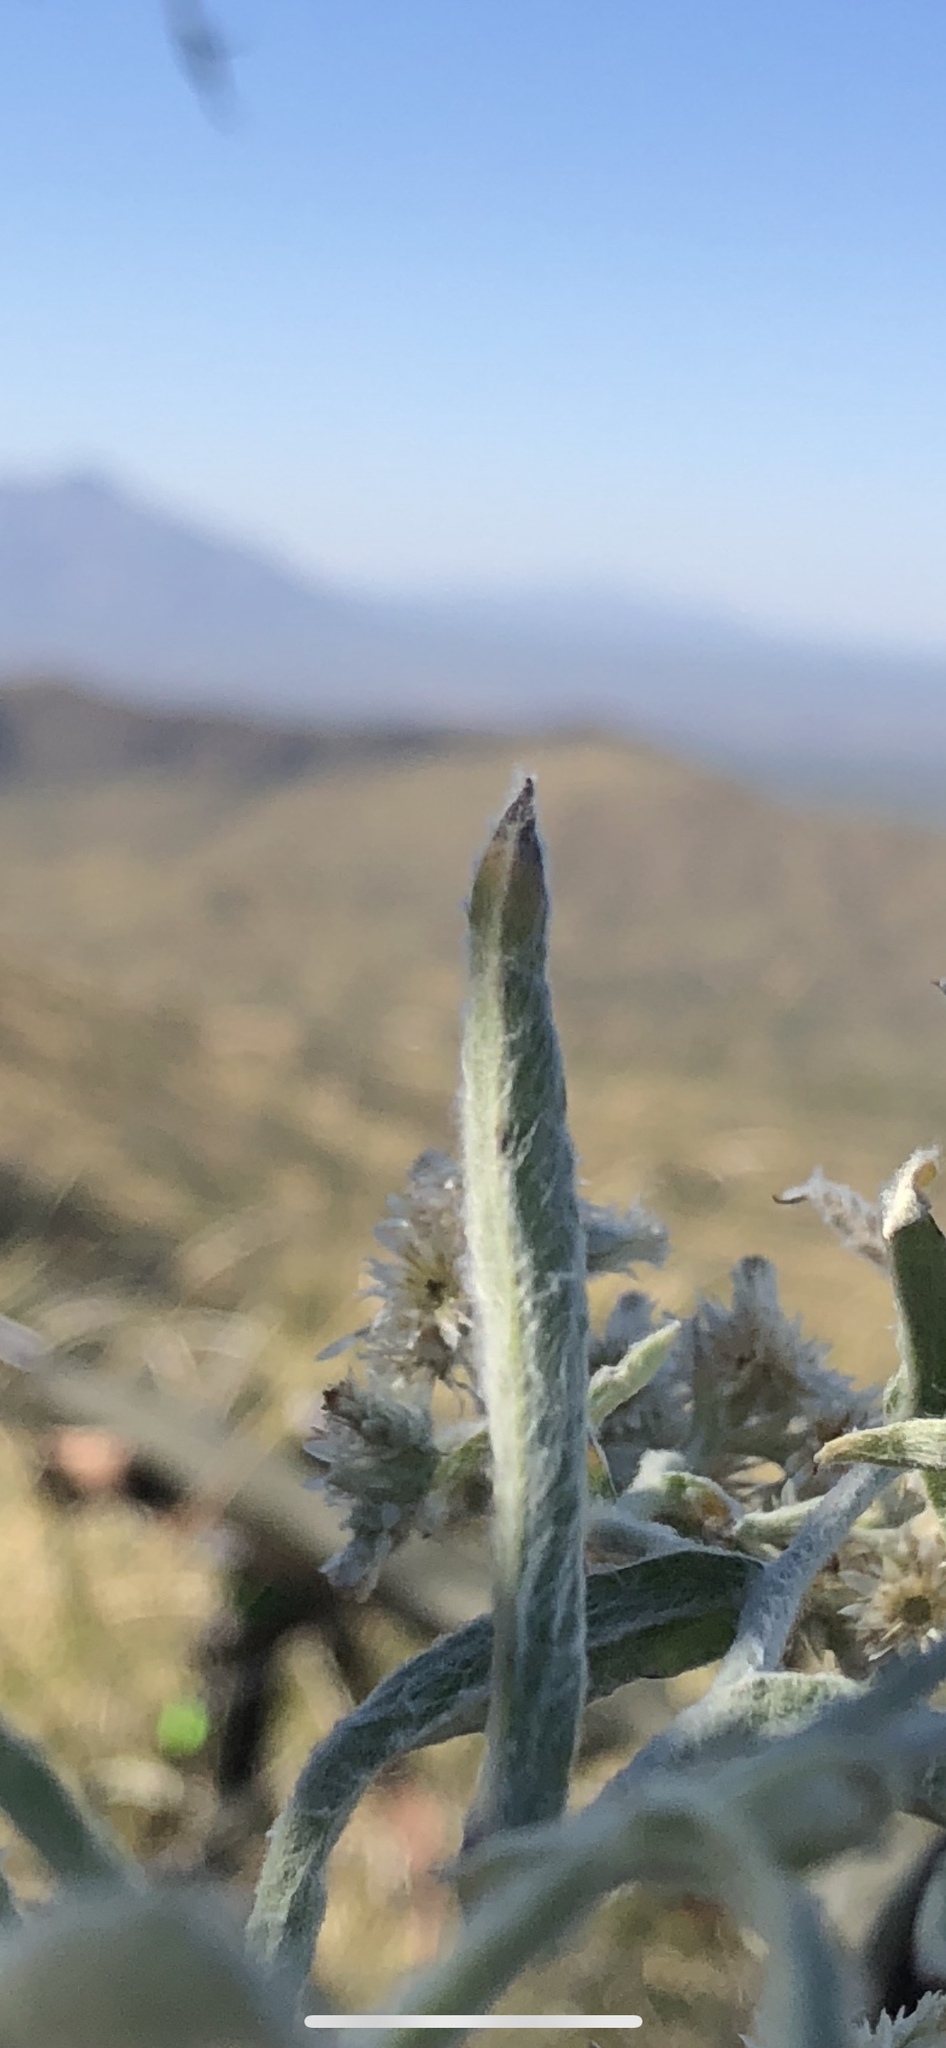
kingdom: Plantae
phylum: Tracheophyta
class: Magnoliopsida
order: Asterales
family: Asteraceae
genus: Pseudognaphalium
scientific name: Pseudognaphalium canescens
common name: Wright's rabbit-tobacco
